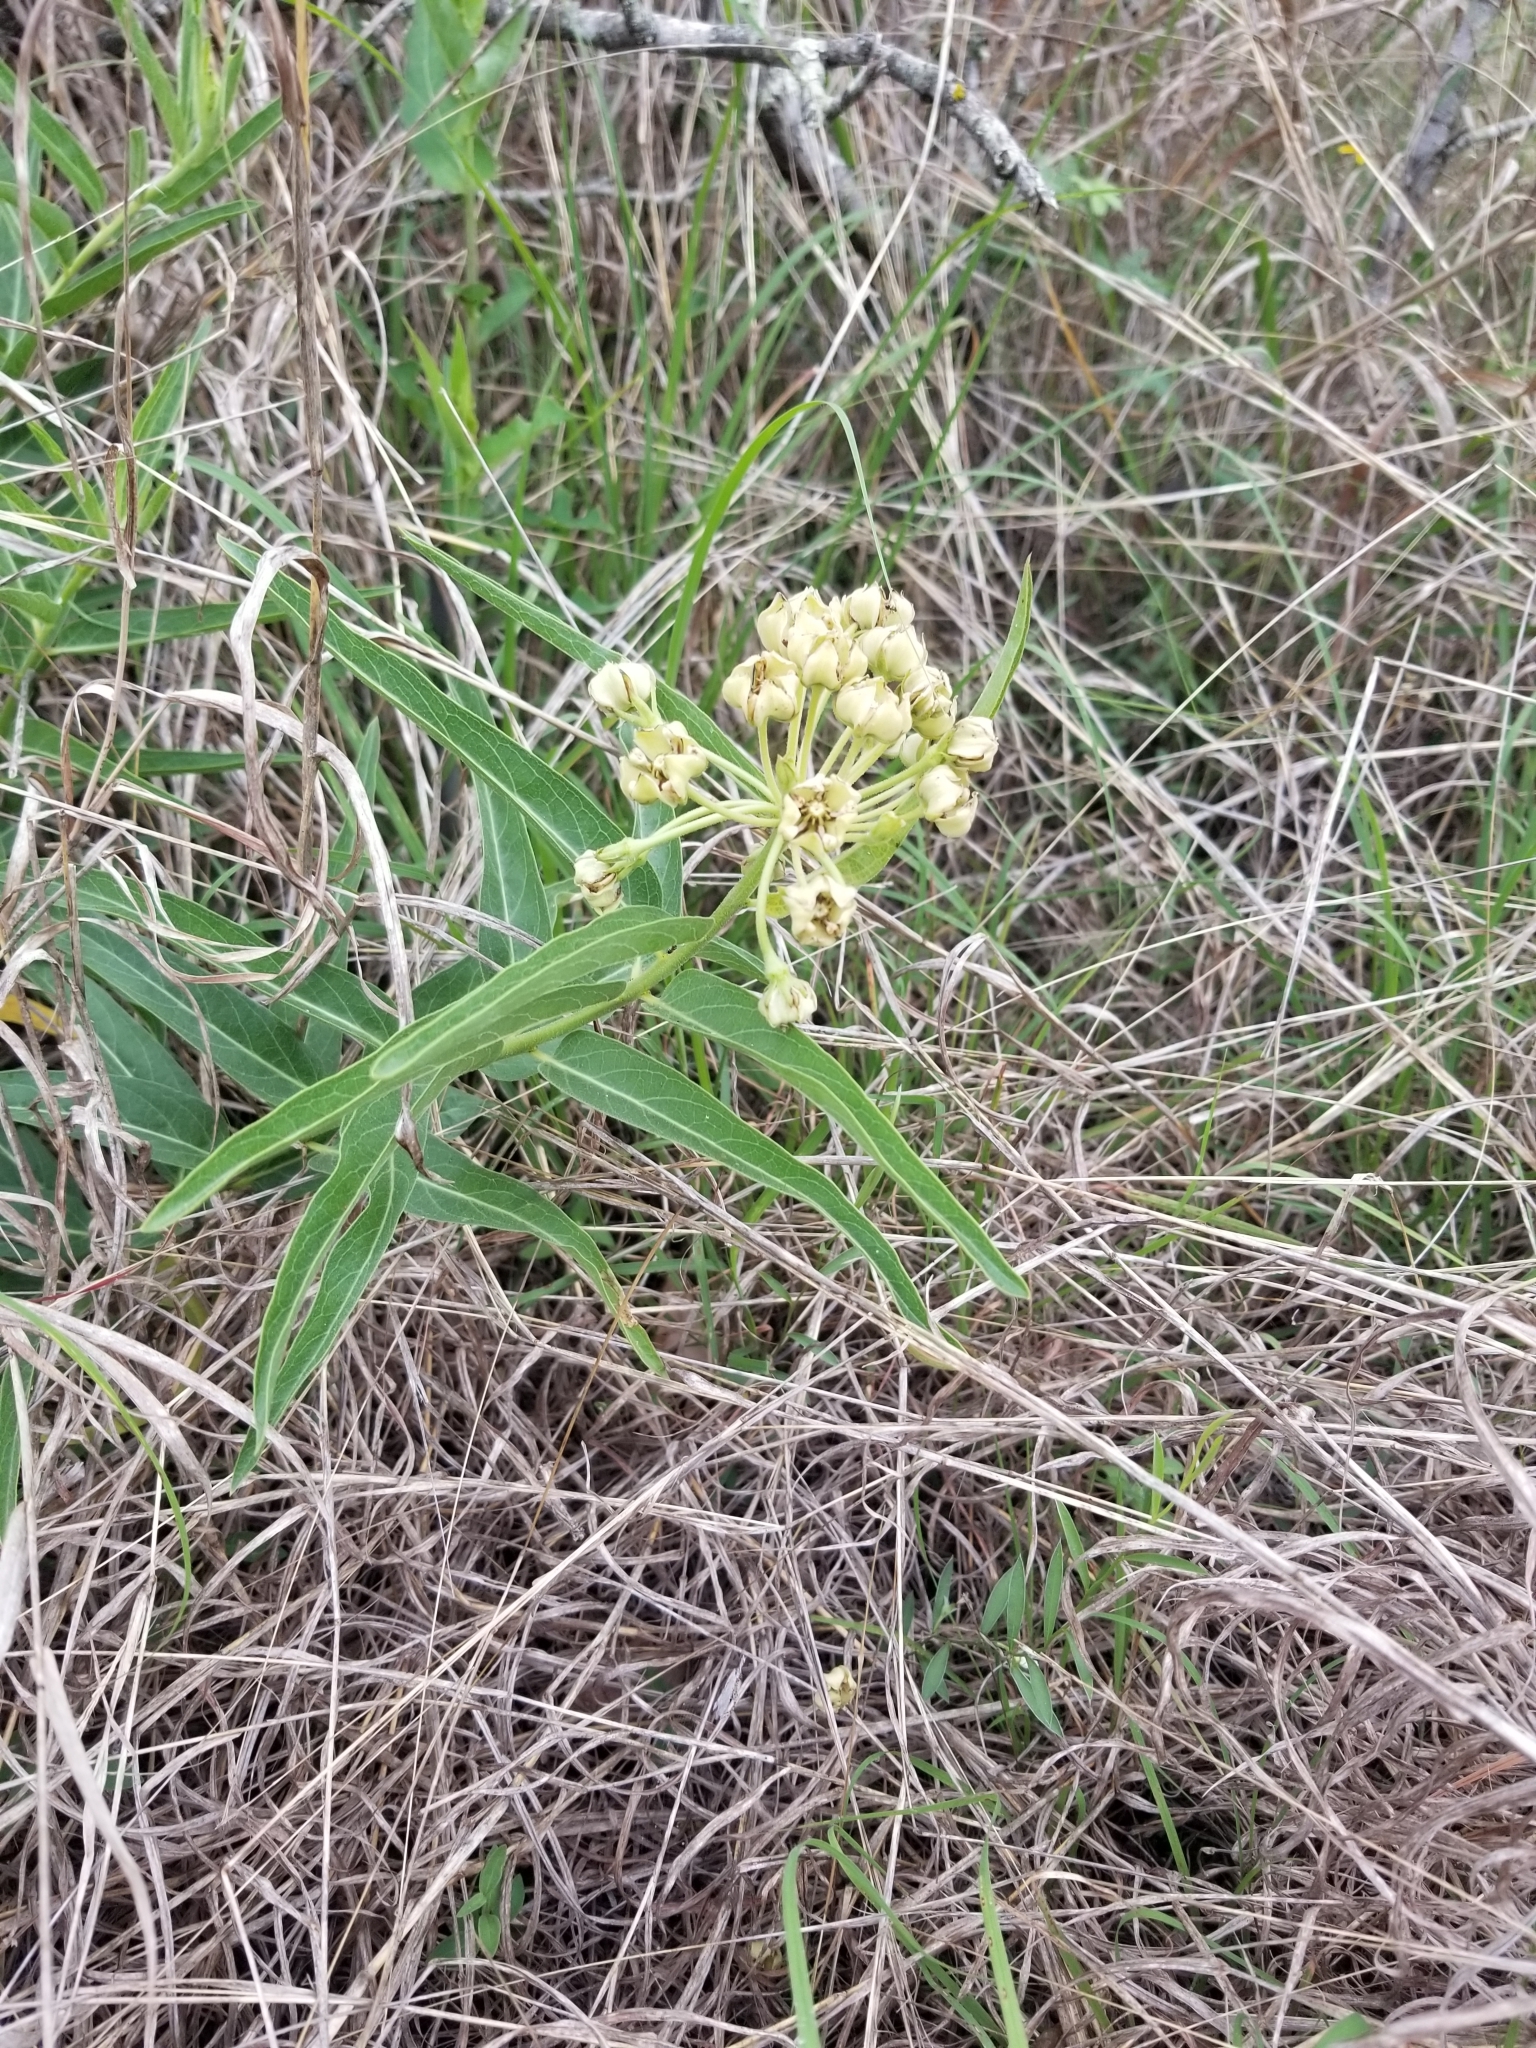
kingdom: Plantae
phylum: Tracheophyta
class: Magnoliopsida
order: Gentianales
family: Apocynaceae
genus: Asclepias
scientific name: Asclepias asperula
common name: Antelope horns
